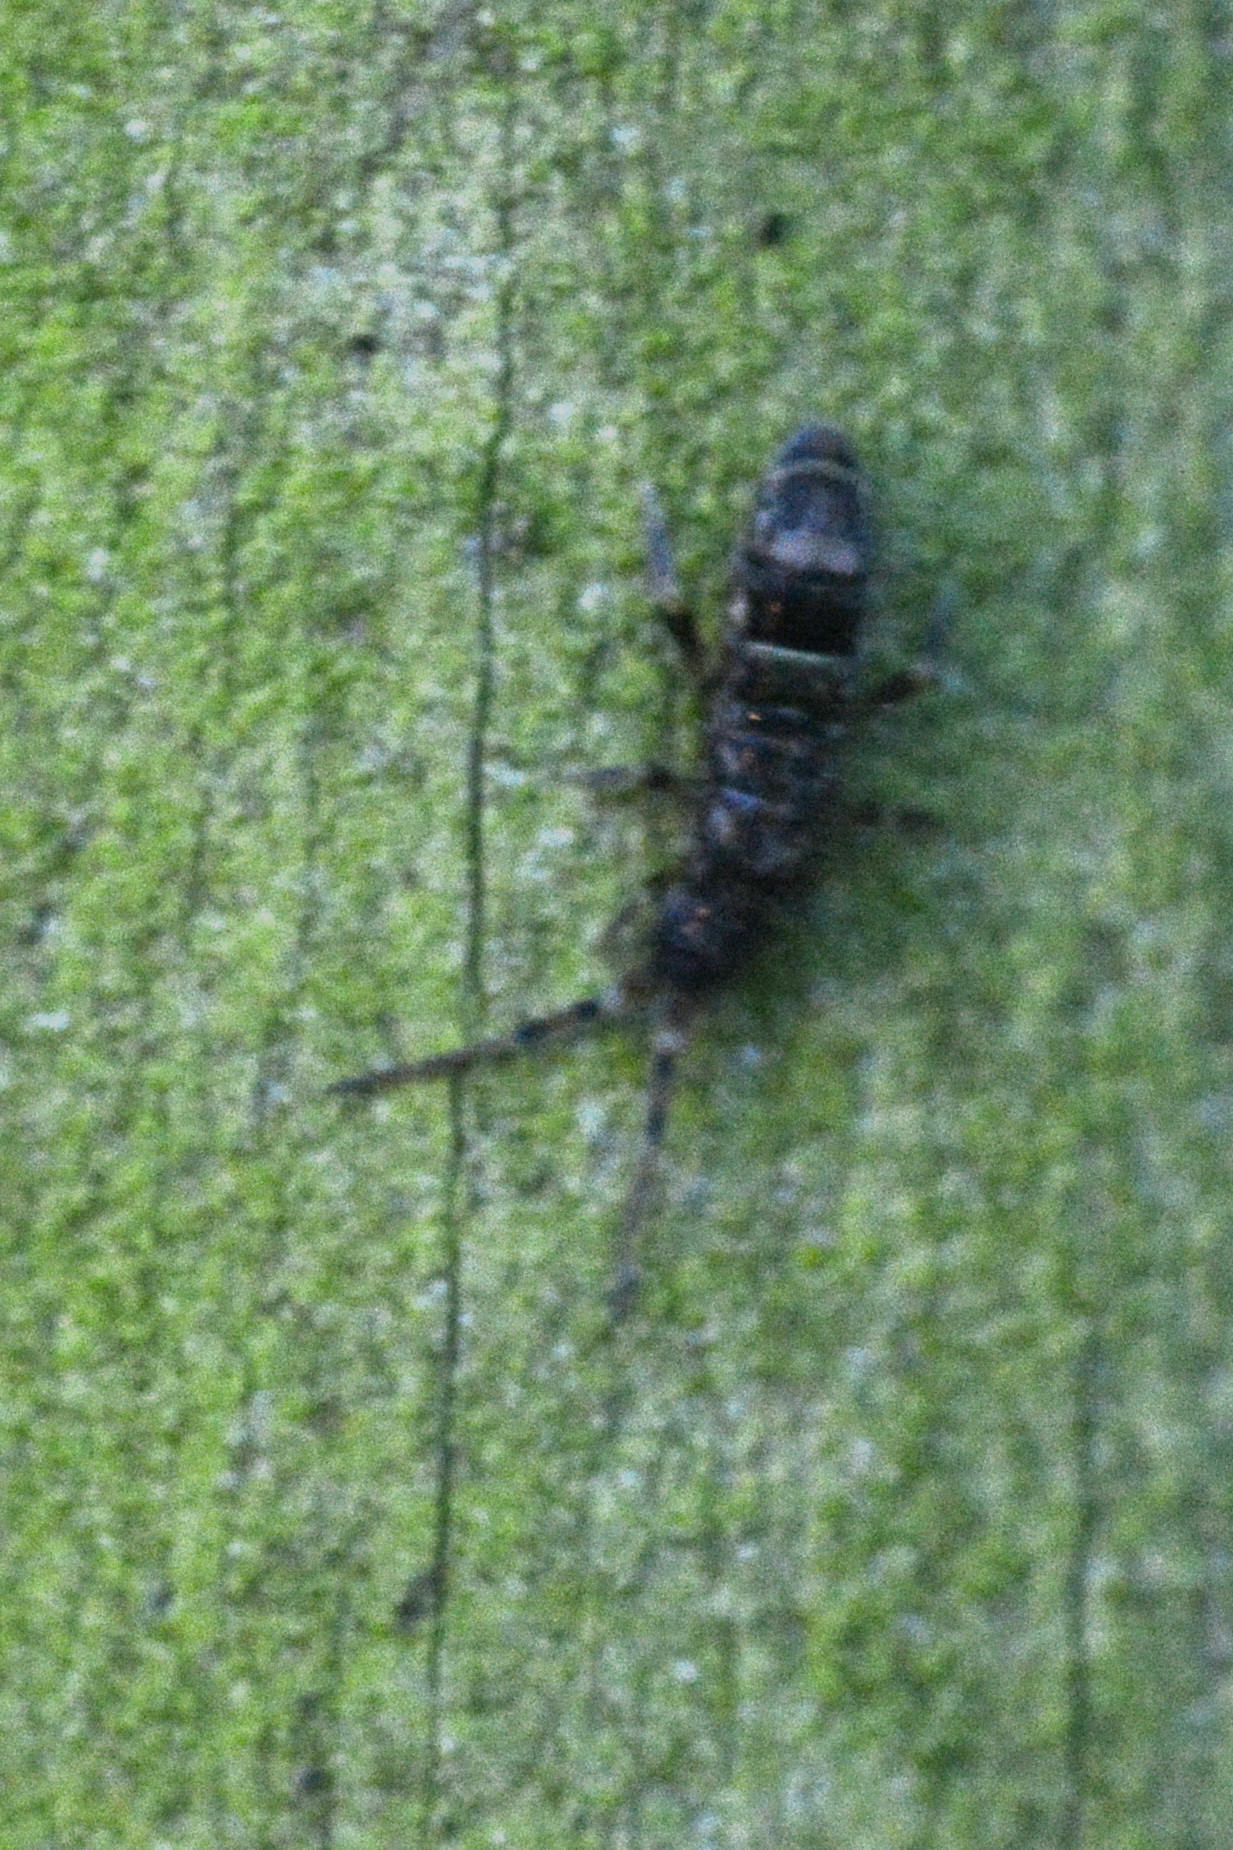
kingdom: Animalia
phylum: Arthropoda
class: Collembola
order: Entomobryomorpha
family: Orchesellidae
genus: Orchesella
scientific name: Orchesella cincta
